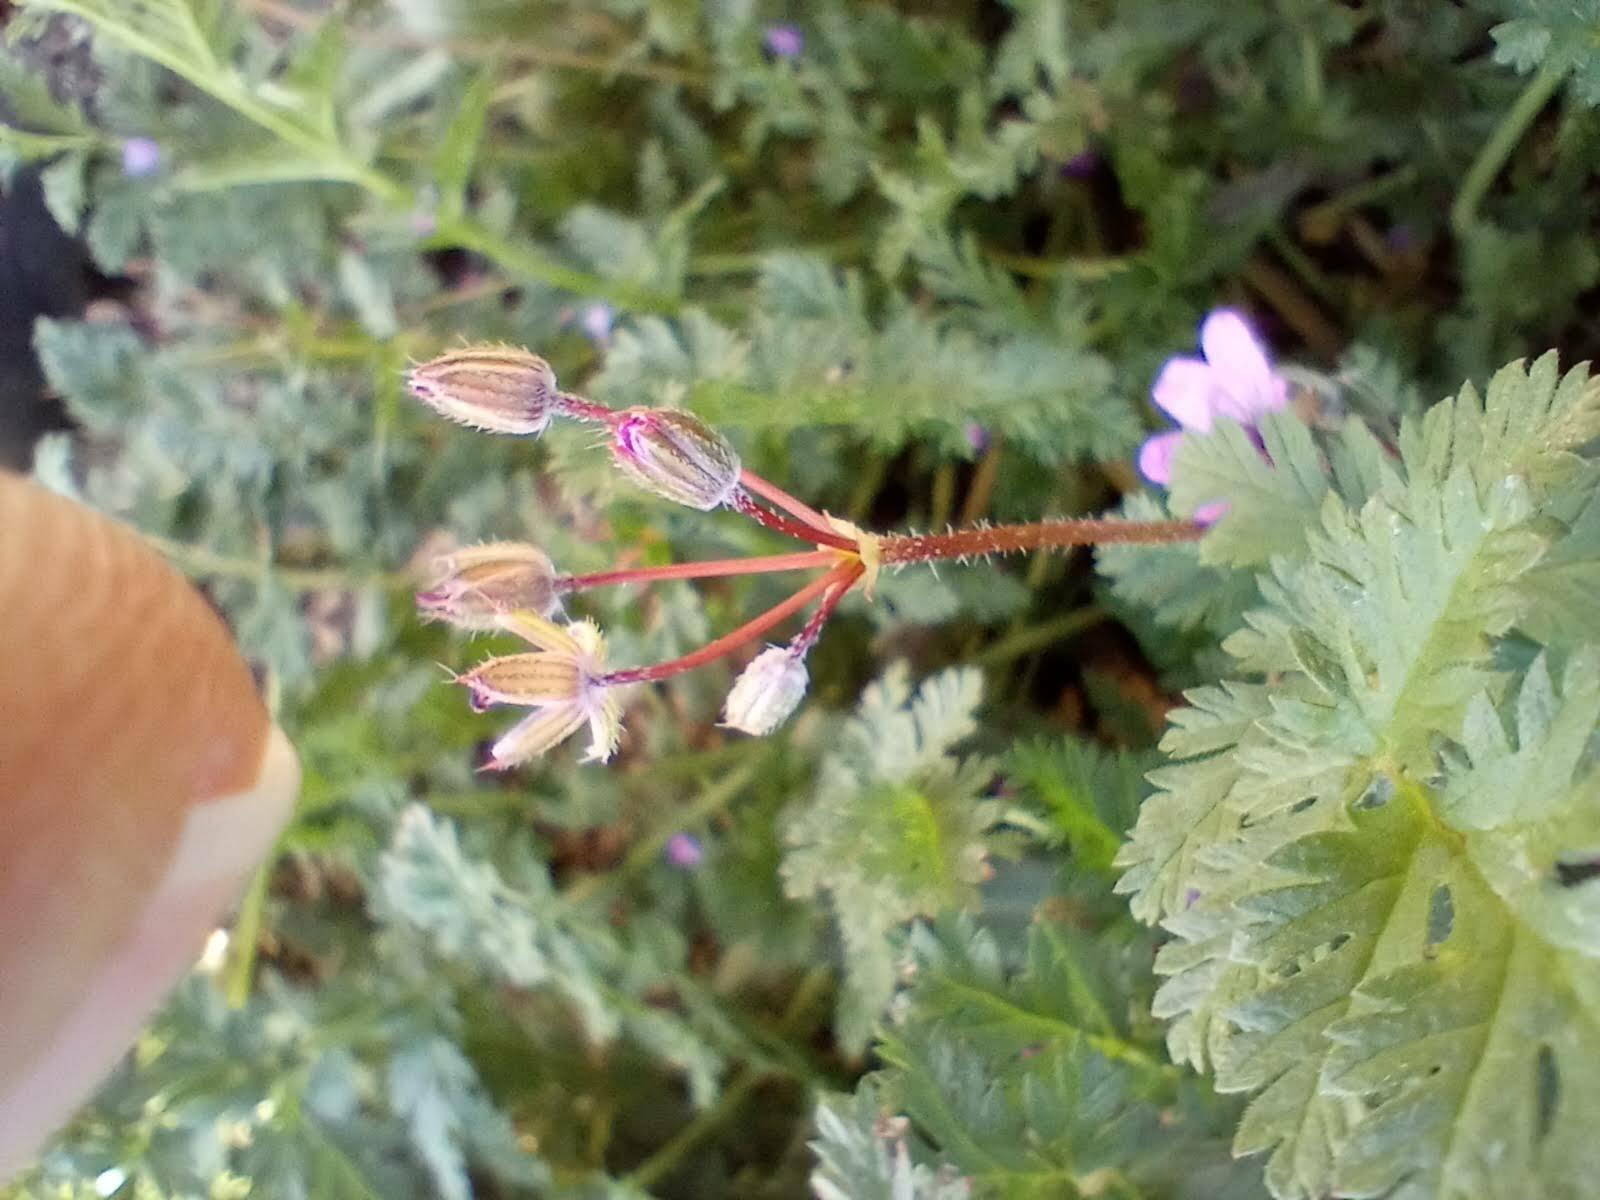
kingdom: Plantae
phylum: Tracheophyta
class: Magnoliopsida
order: Geraniales
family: Geraniaceae
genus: Erodium
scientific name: Erodium cicutarium
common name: Common stork's-bill
